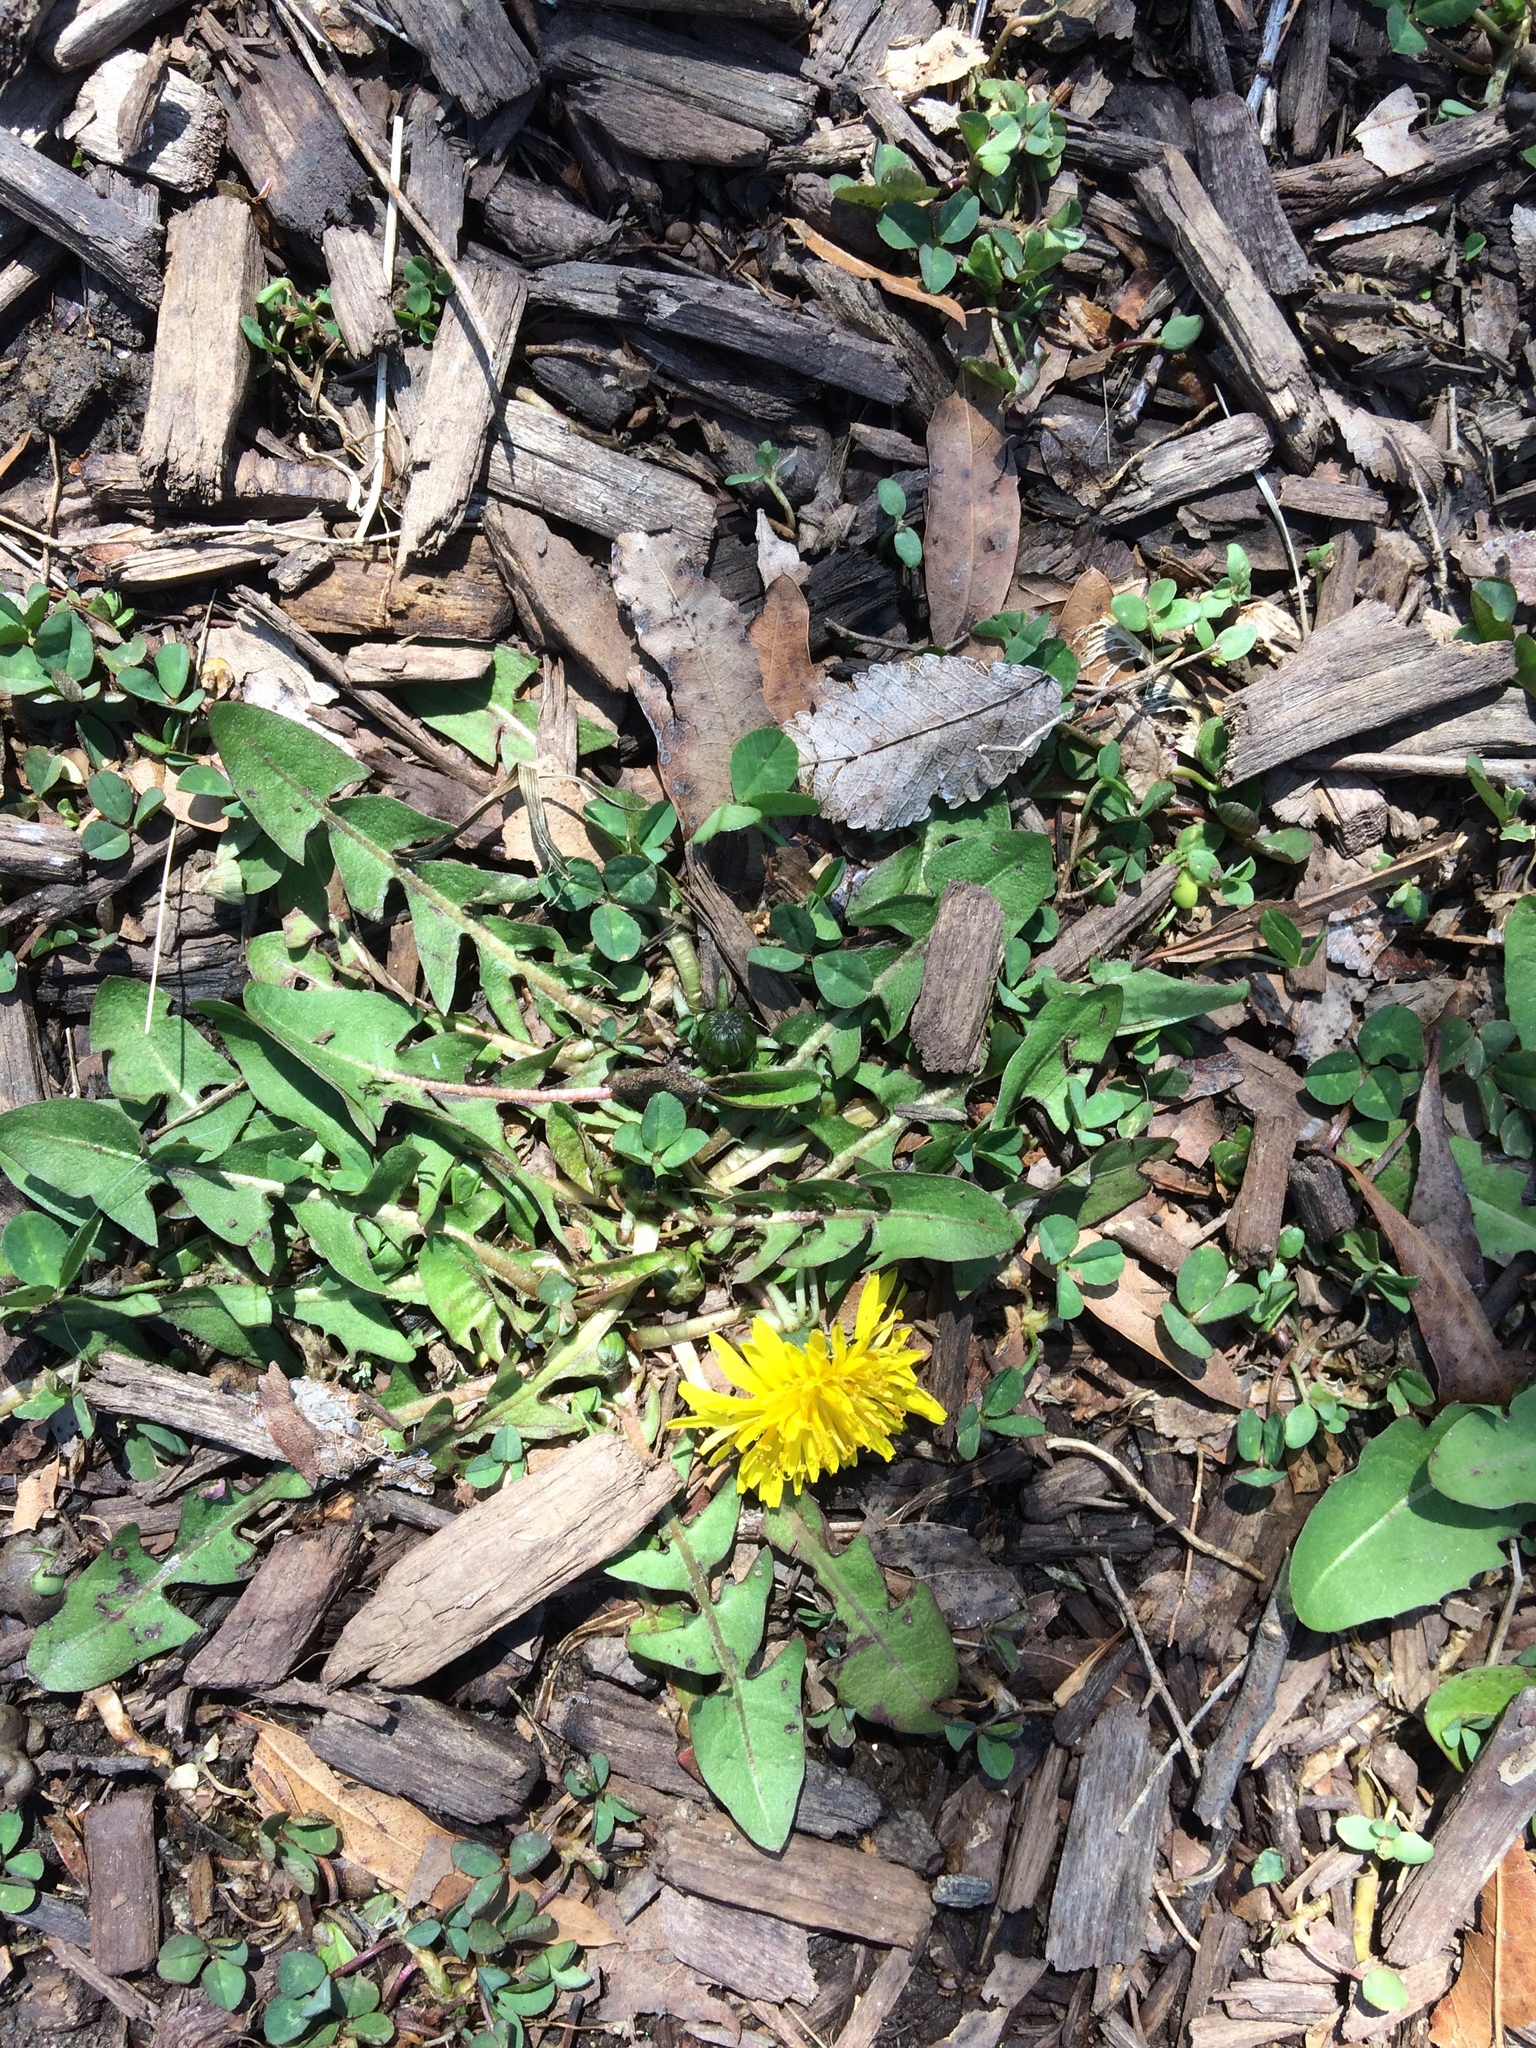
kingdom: Plantae
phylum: Tracheophyta
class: Magnoliopsida
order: Asterales
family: Asteraceae
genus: Taraxacum
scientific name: Taraxacum officinale
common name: Common dandelion
